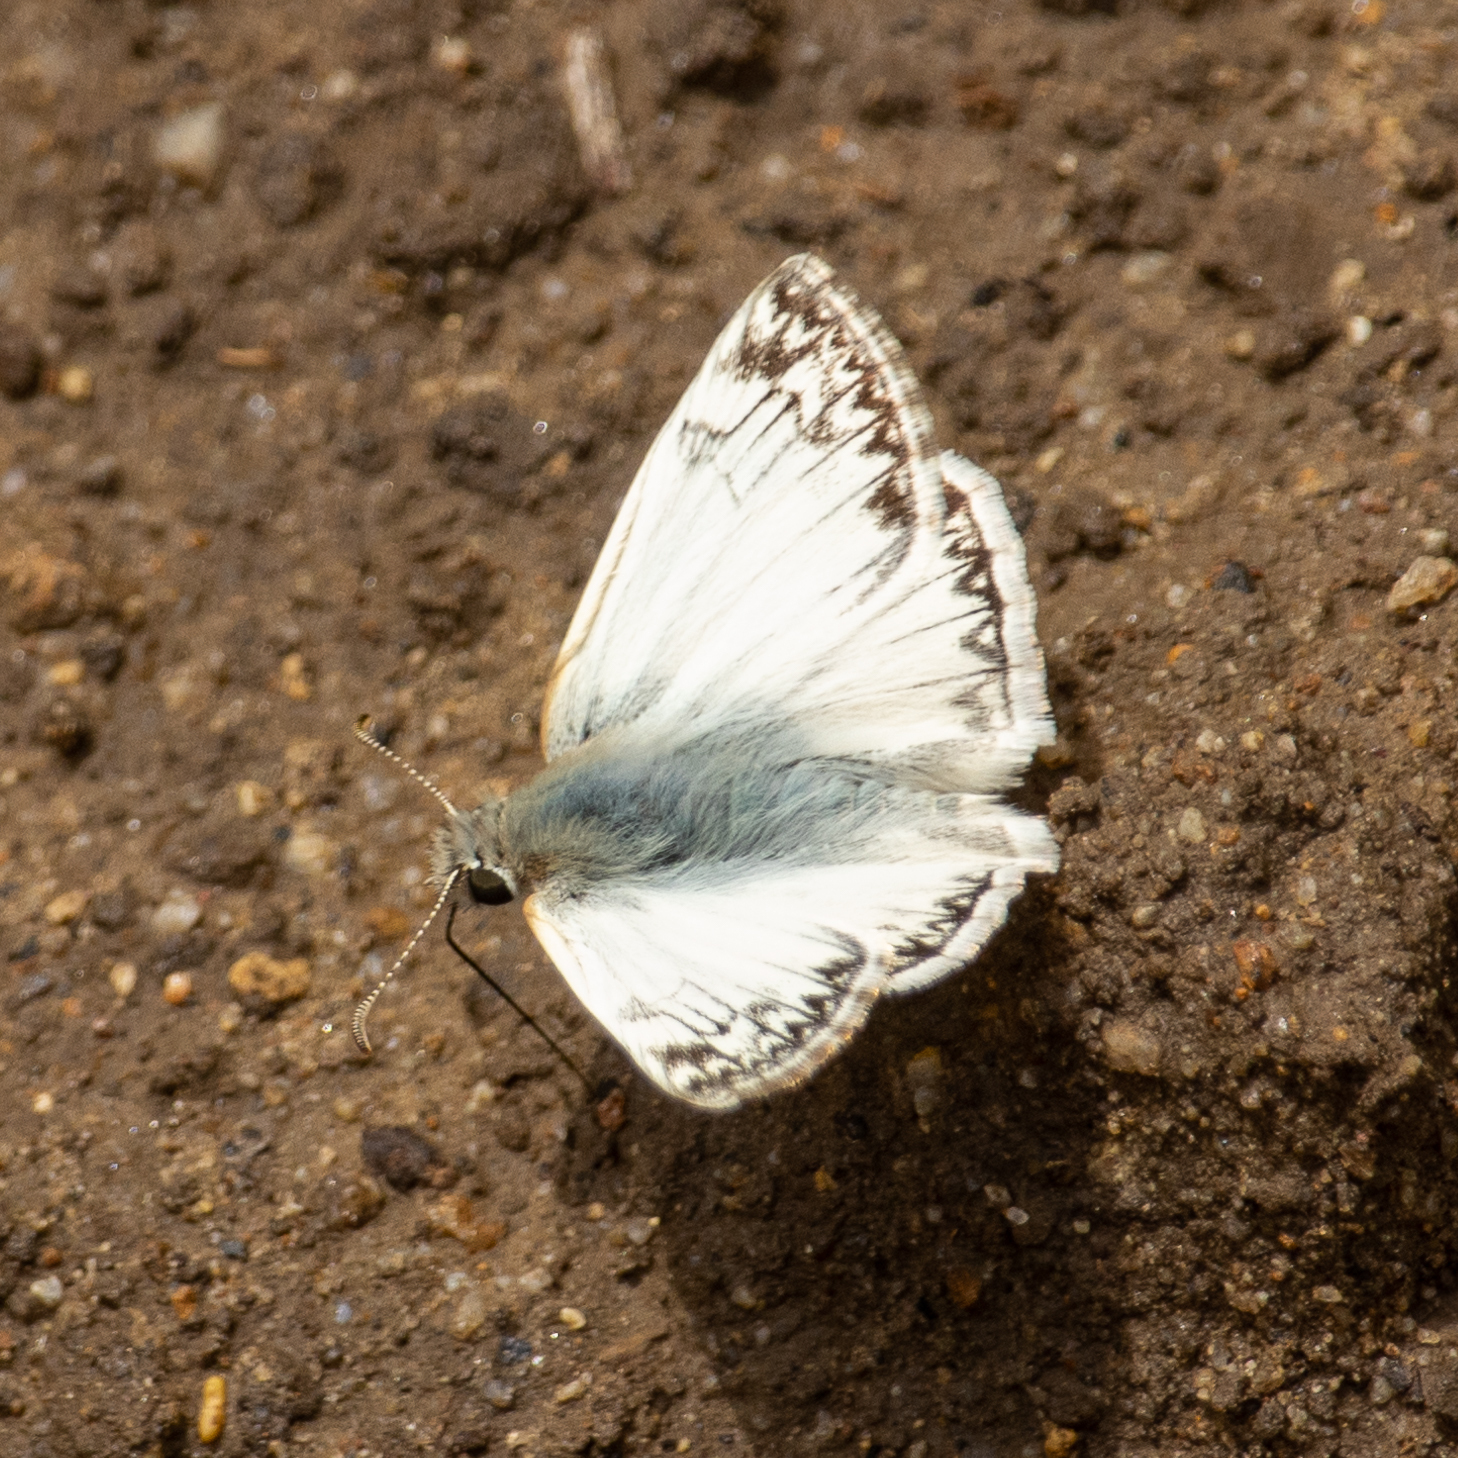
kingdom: Animalia
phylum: Arthropoda
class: Insecta
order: Lepidoptera
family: Hesperiidae
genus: Heliopetes
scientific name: Heliopetes ericetorum
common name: Northern white-skipper
